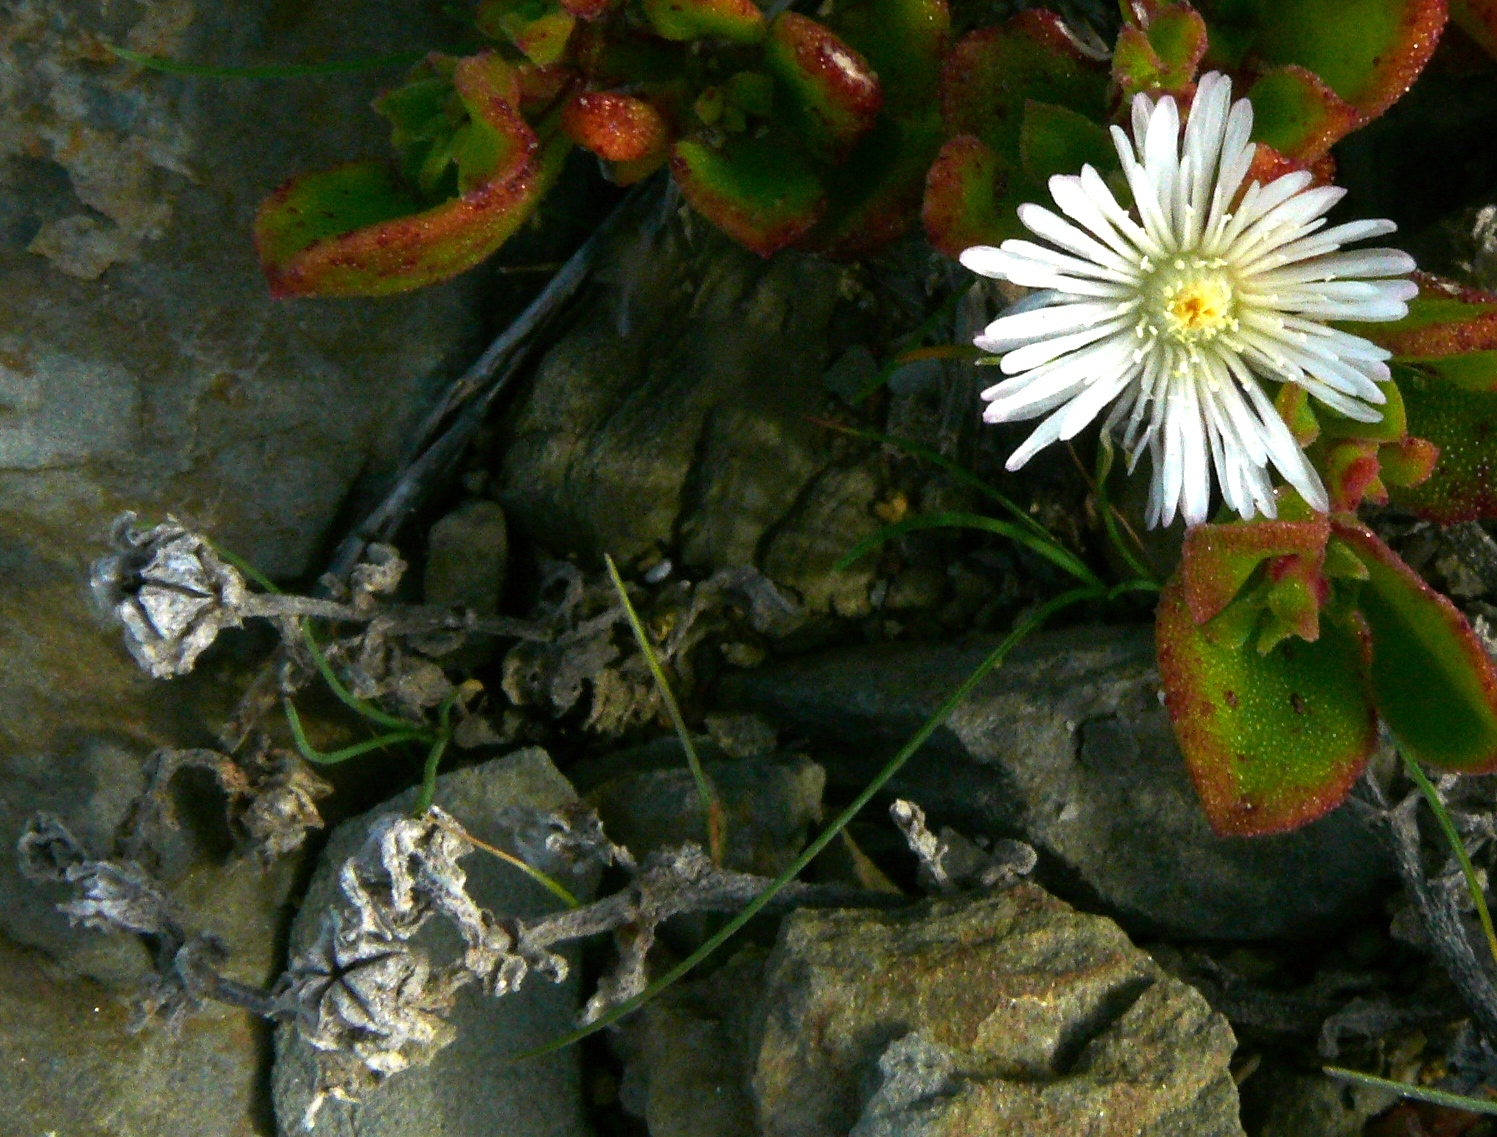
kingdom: Plantae
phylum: Tracheophyta
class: Magnoliopsida
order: Caryophyllales
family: Aizoaceae
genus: Mesembryanthemum
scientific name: Mesembryanthemum aitonis
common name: Angled iceplant
